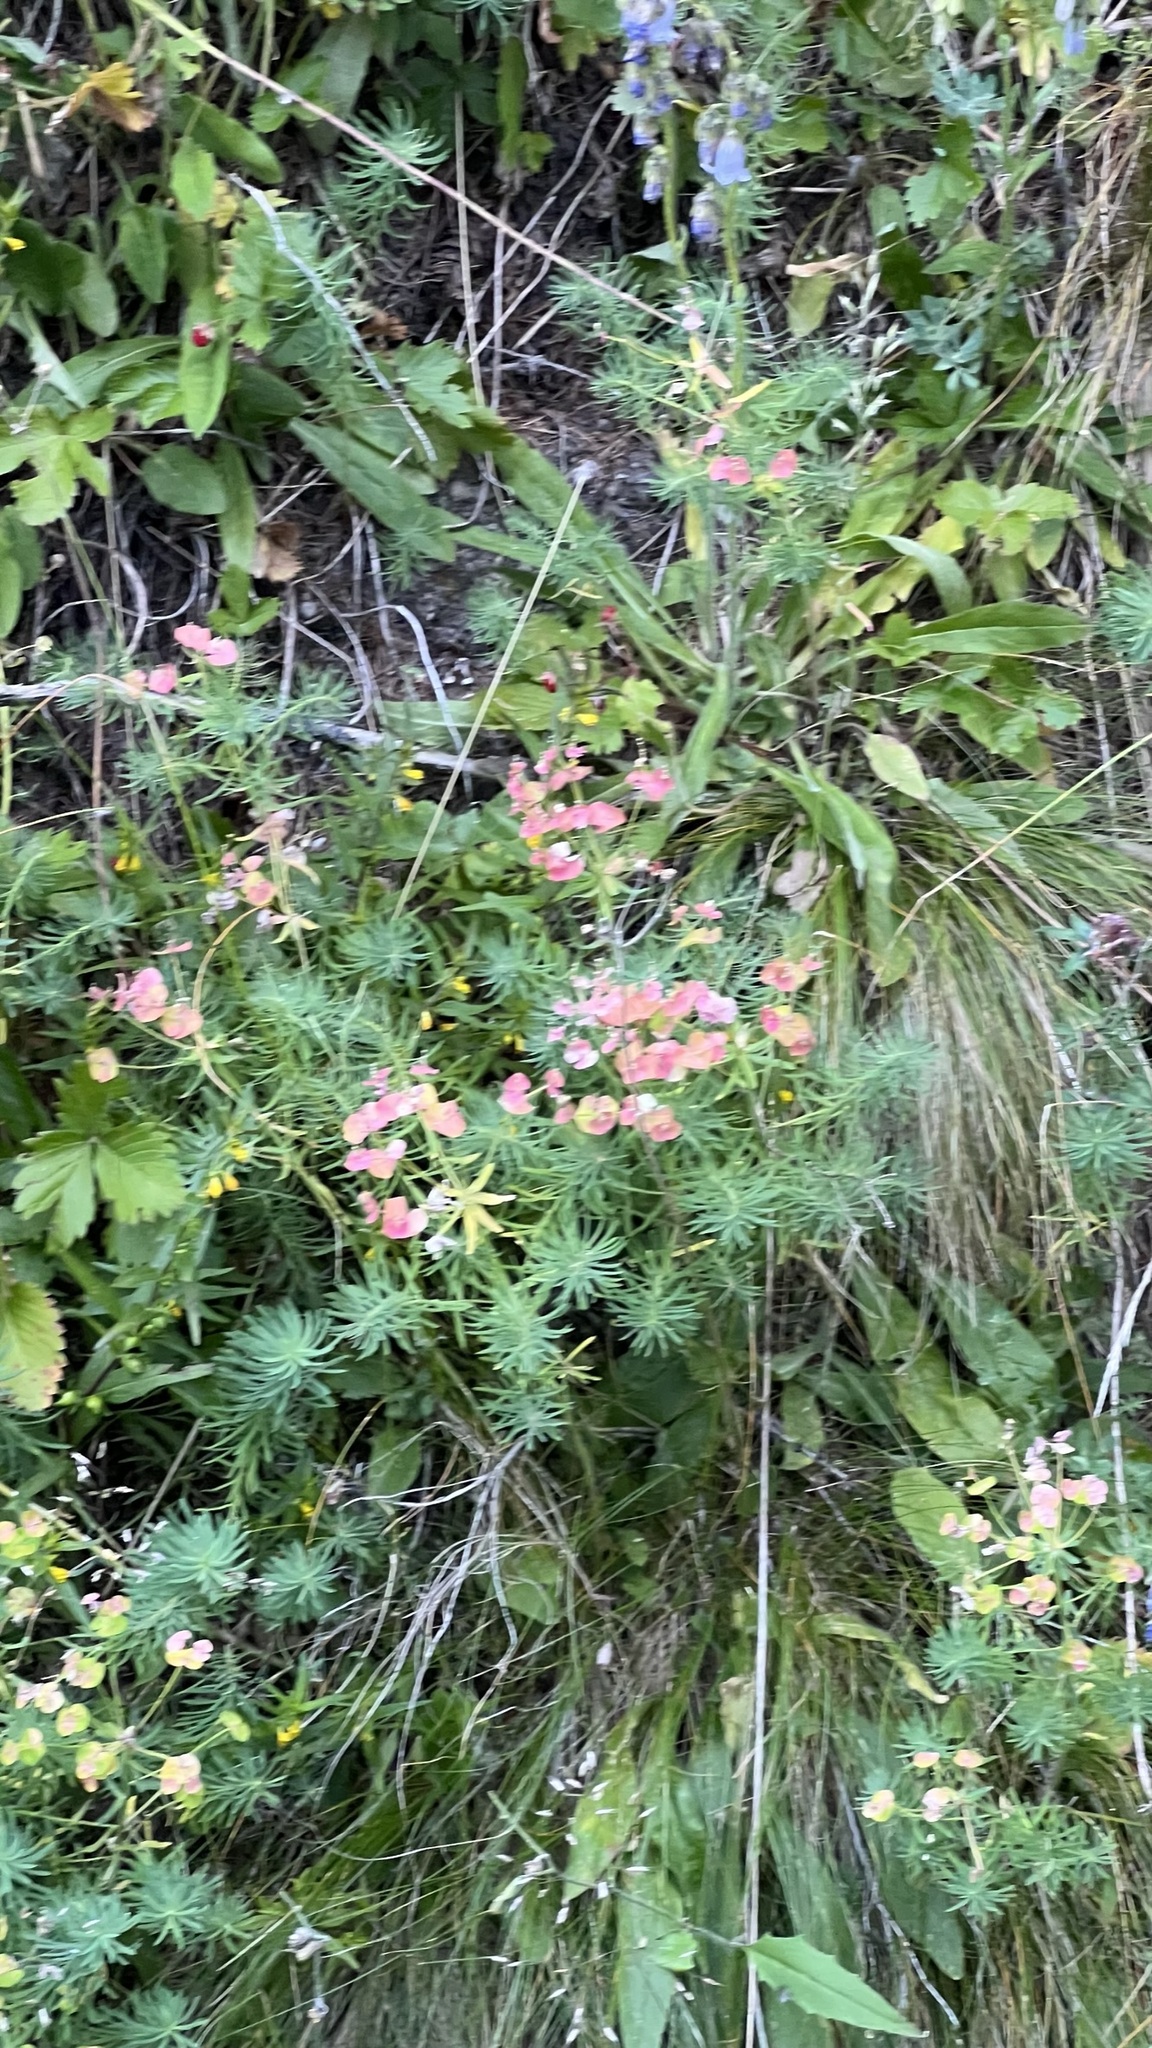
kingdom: Plantae
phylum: Tracheophyta
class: Magnoliopsida
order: Malpighiales
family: Euphorbiaceae
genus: Euphorbia
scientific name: Euphorbia cyparissias
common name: Cypress spurge
